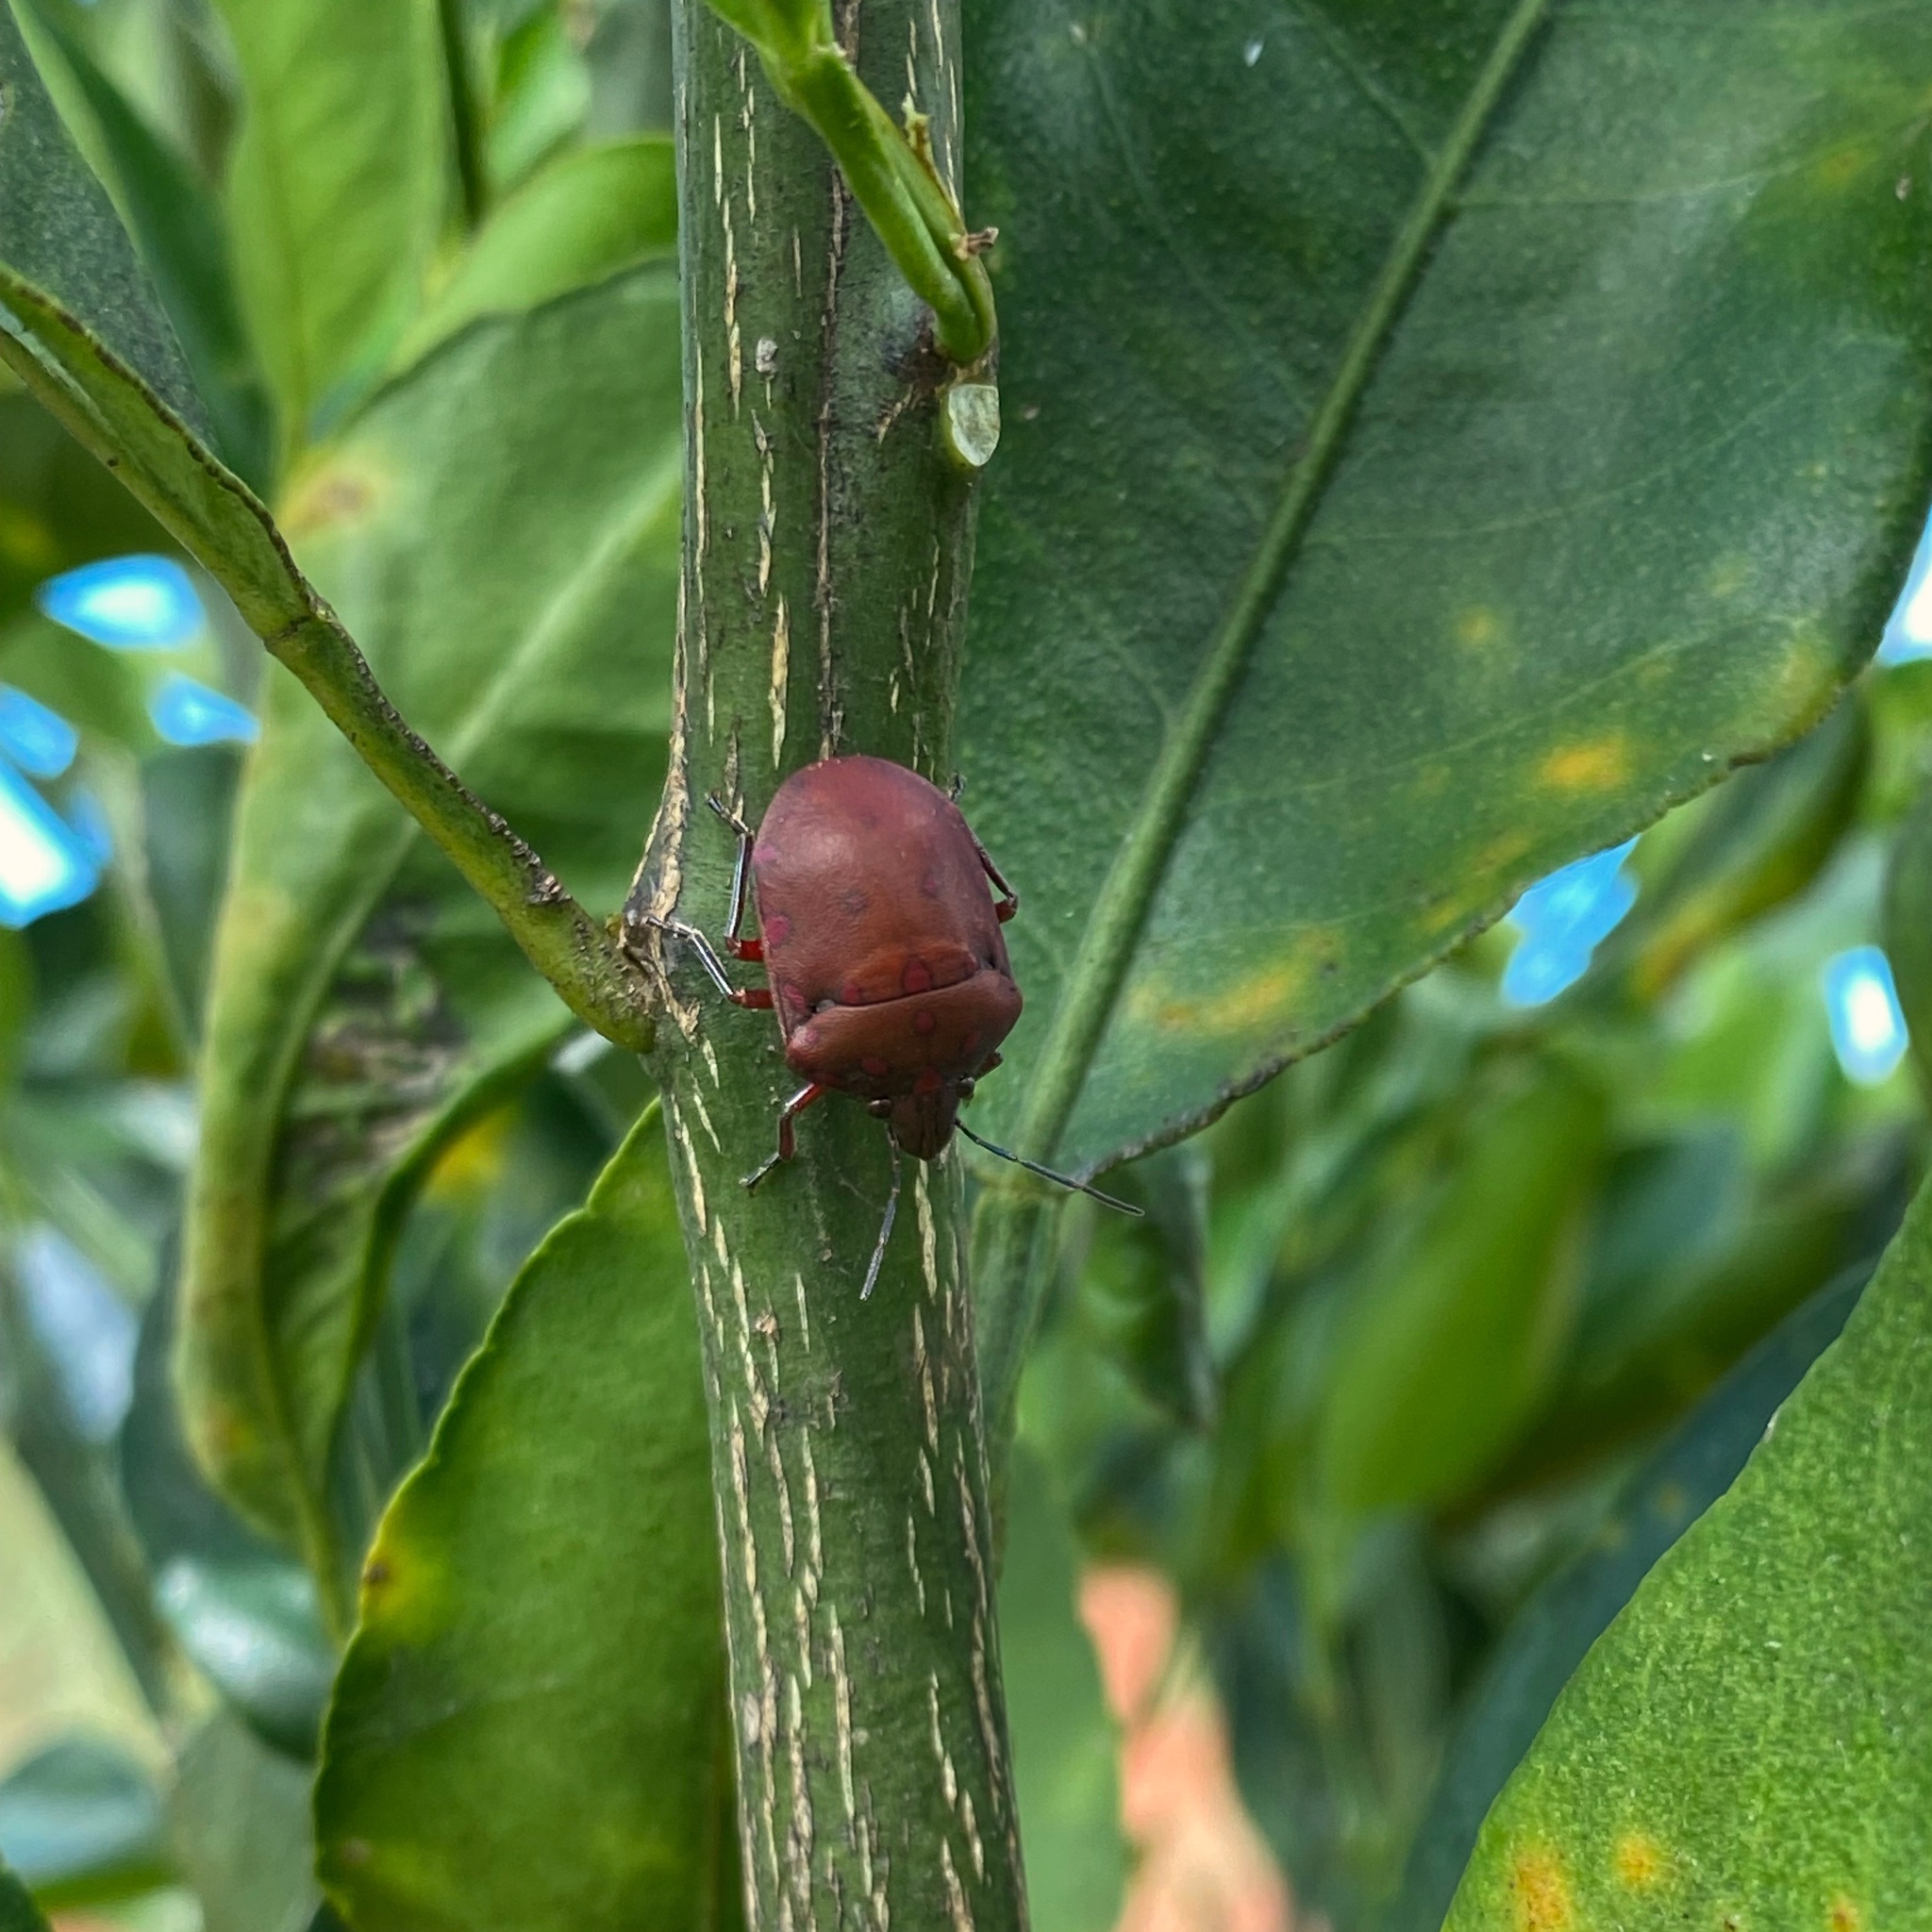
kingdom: Animalia
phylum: Arthropoda
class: Insecta
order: Hemiptera
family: Scutelleridae
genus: Pachycoris
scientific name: Pachycoris torridus
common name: Torrid jewel bug
